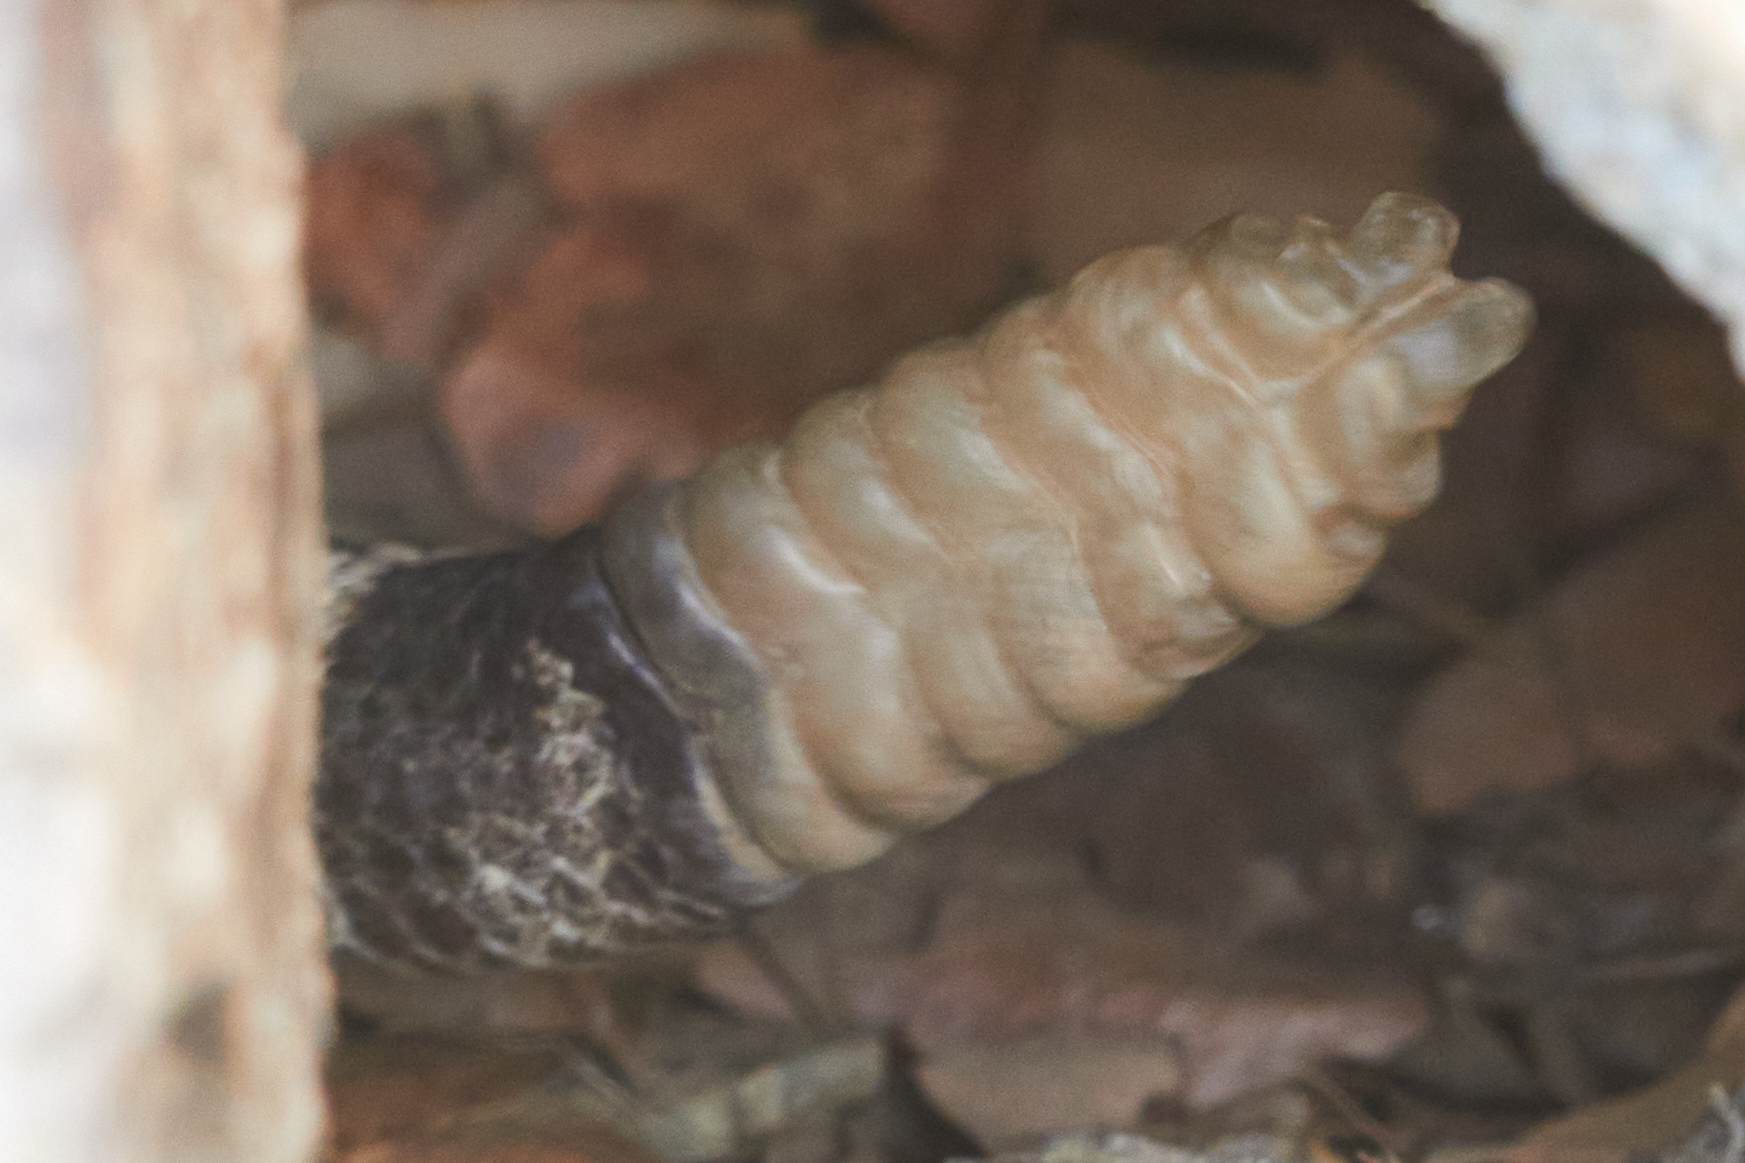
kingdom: Animalia
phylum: Chordata
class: Squamata
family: Viperidae
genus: Crotalus
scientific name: Crotalus oreganus
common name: Abyssus
